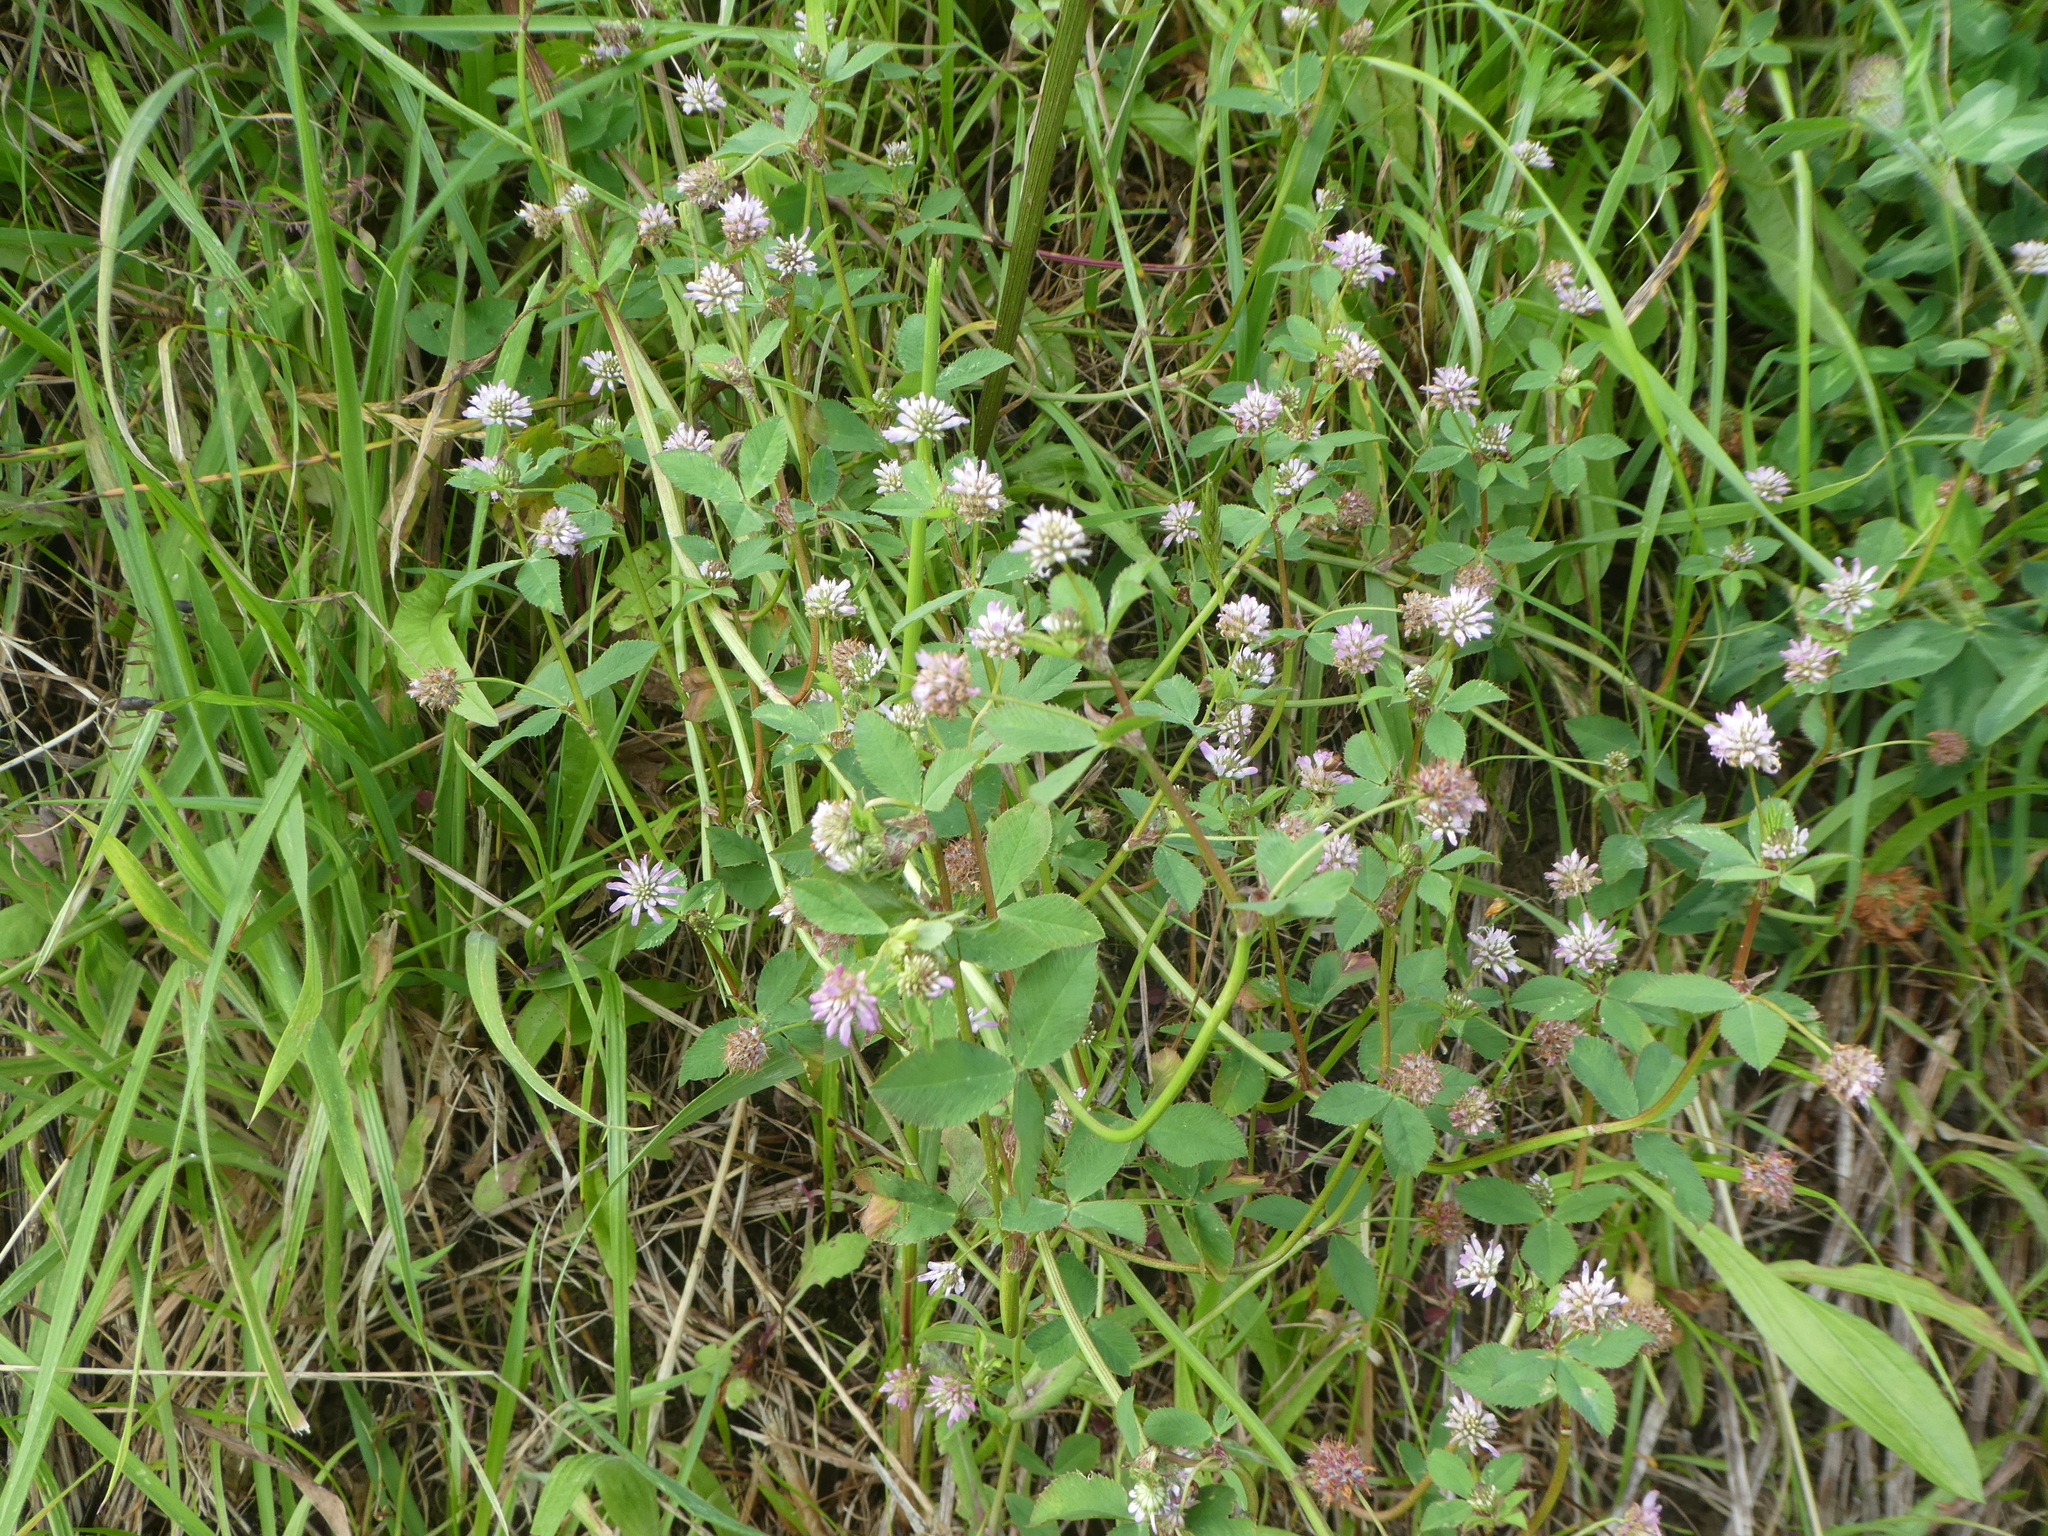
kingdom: Plantae
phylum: Tracheophyta
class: Magnoliopsida
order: Fabales
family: Fabaceae
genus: Trifolium
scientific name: Trifolium resupinatum
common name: Reversed clover
